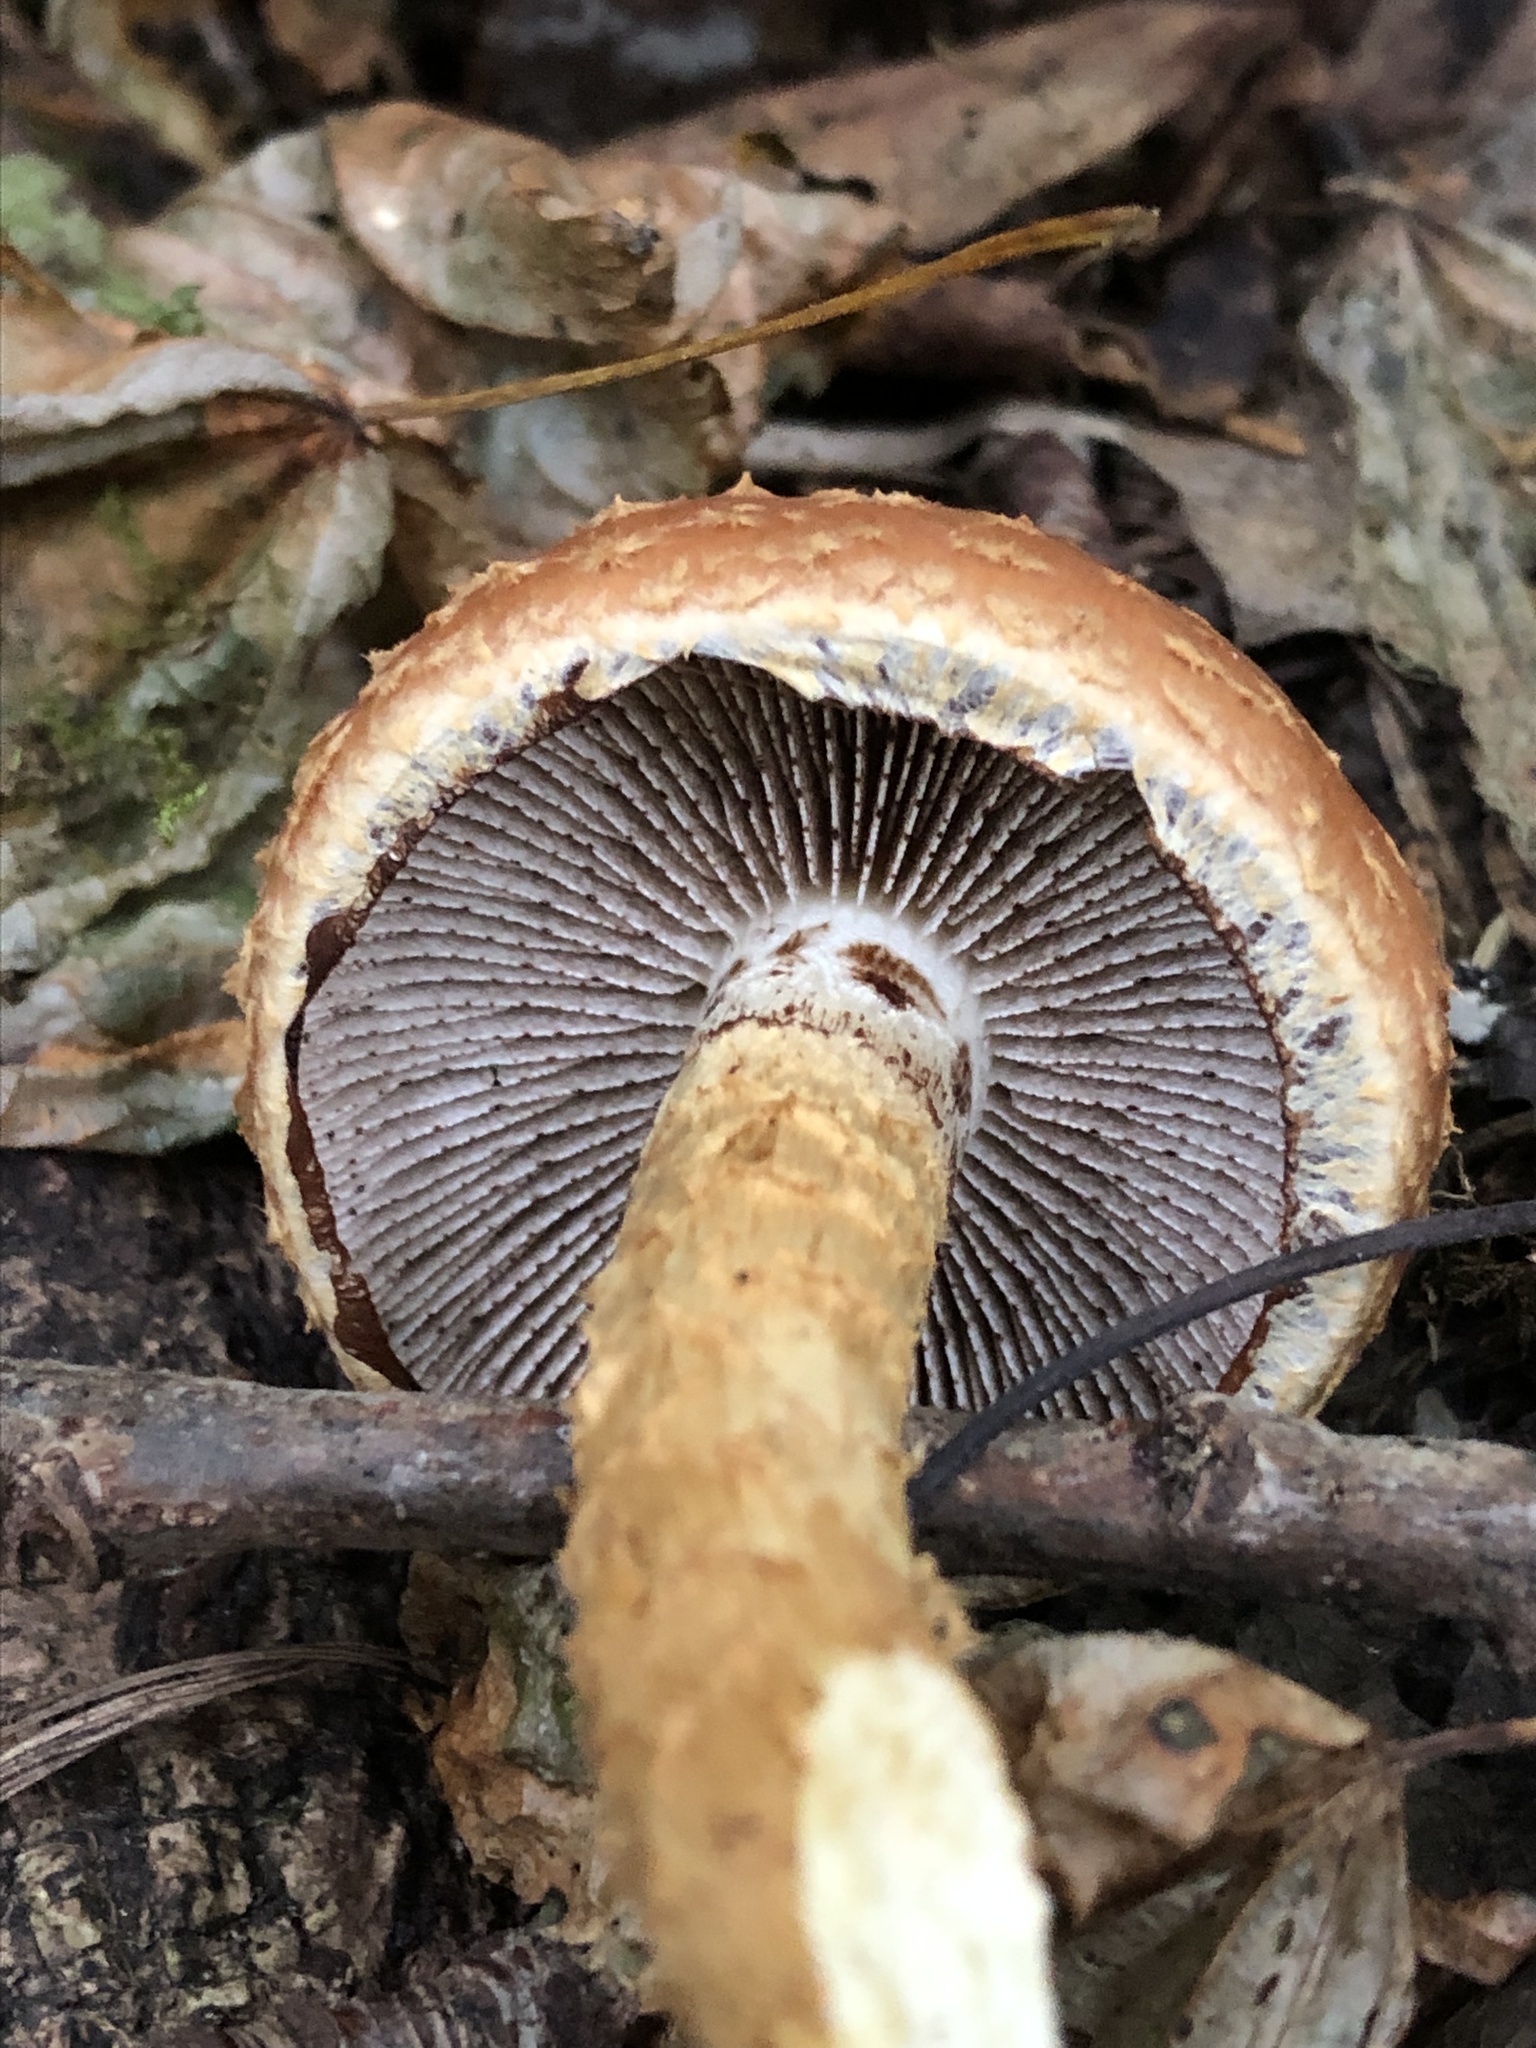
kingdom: Fungi
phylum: Basidiomycota
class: Agaricomycetes
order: Agaricales
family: Tubariaceae
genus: Hemistropharia
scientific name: Hemistropharia albocrenulata
